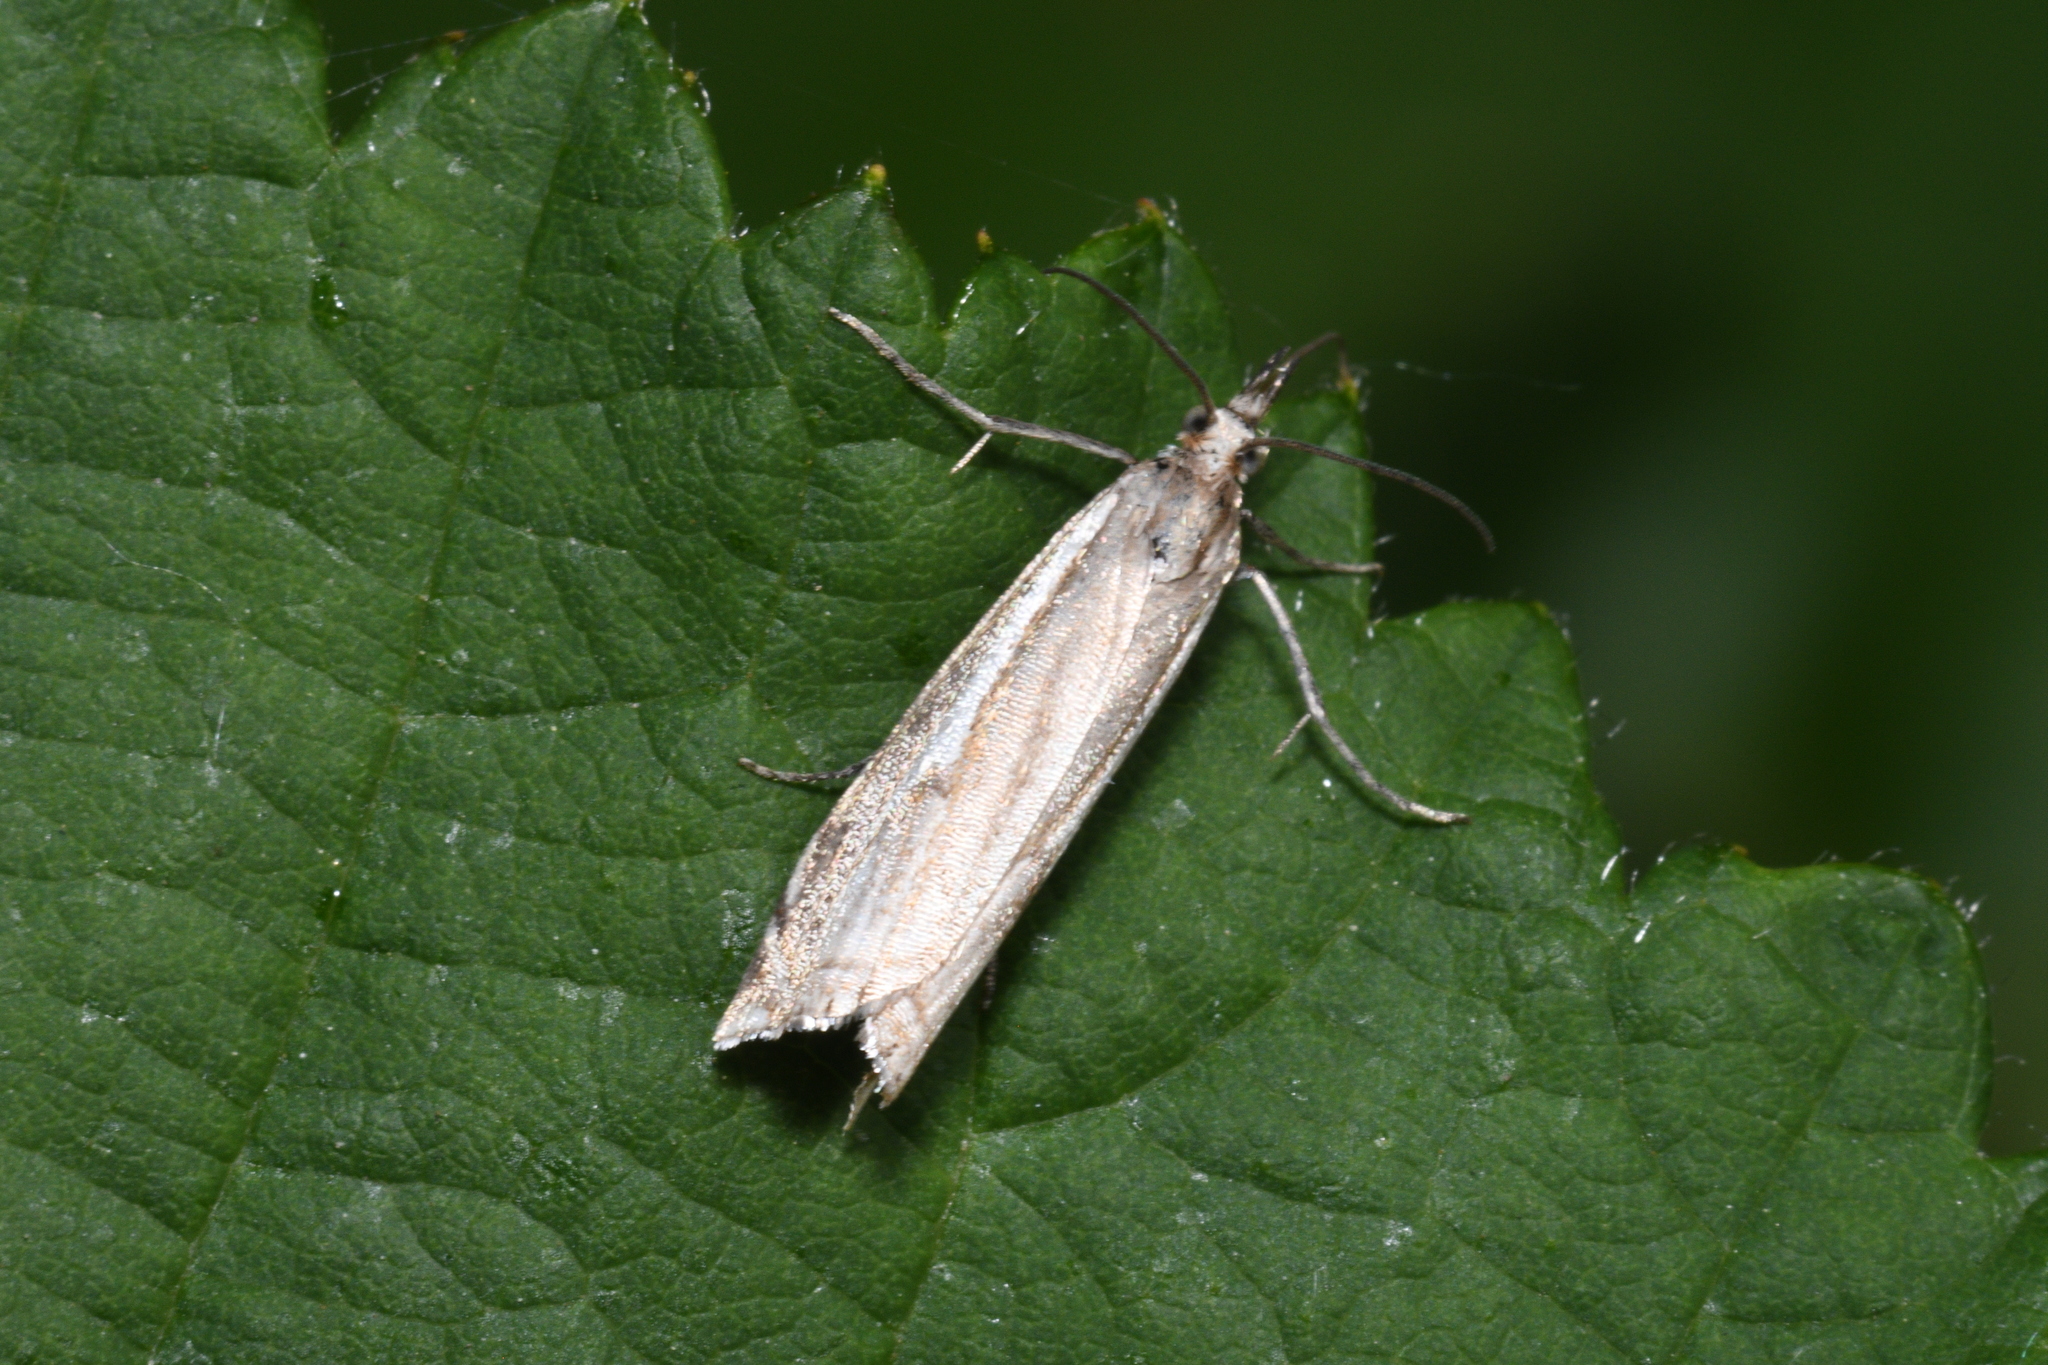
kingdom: Animalia
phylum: Arthropoda
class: Insecta
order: Lepidoptera
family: Crambidae
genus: Crambus
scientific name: Crambus nemorella
